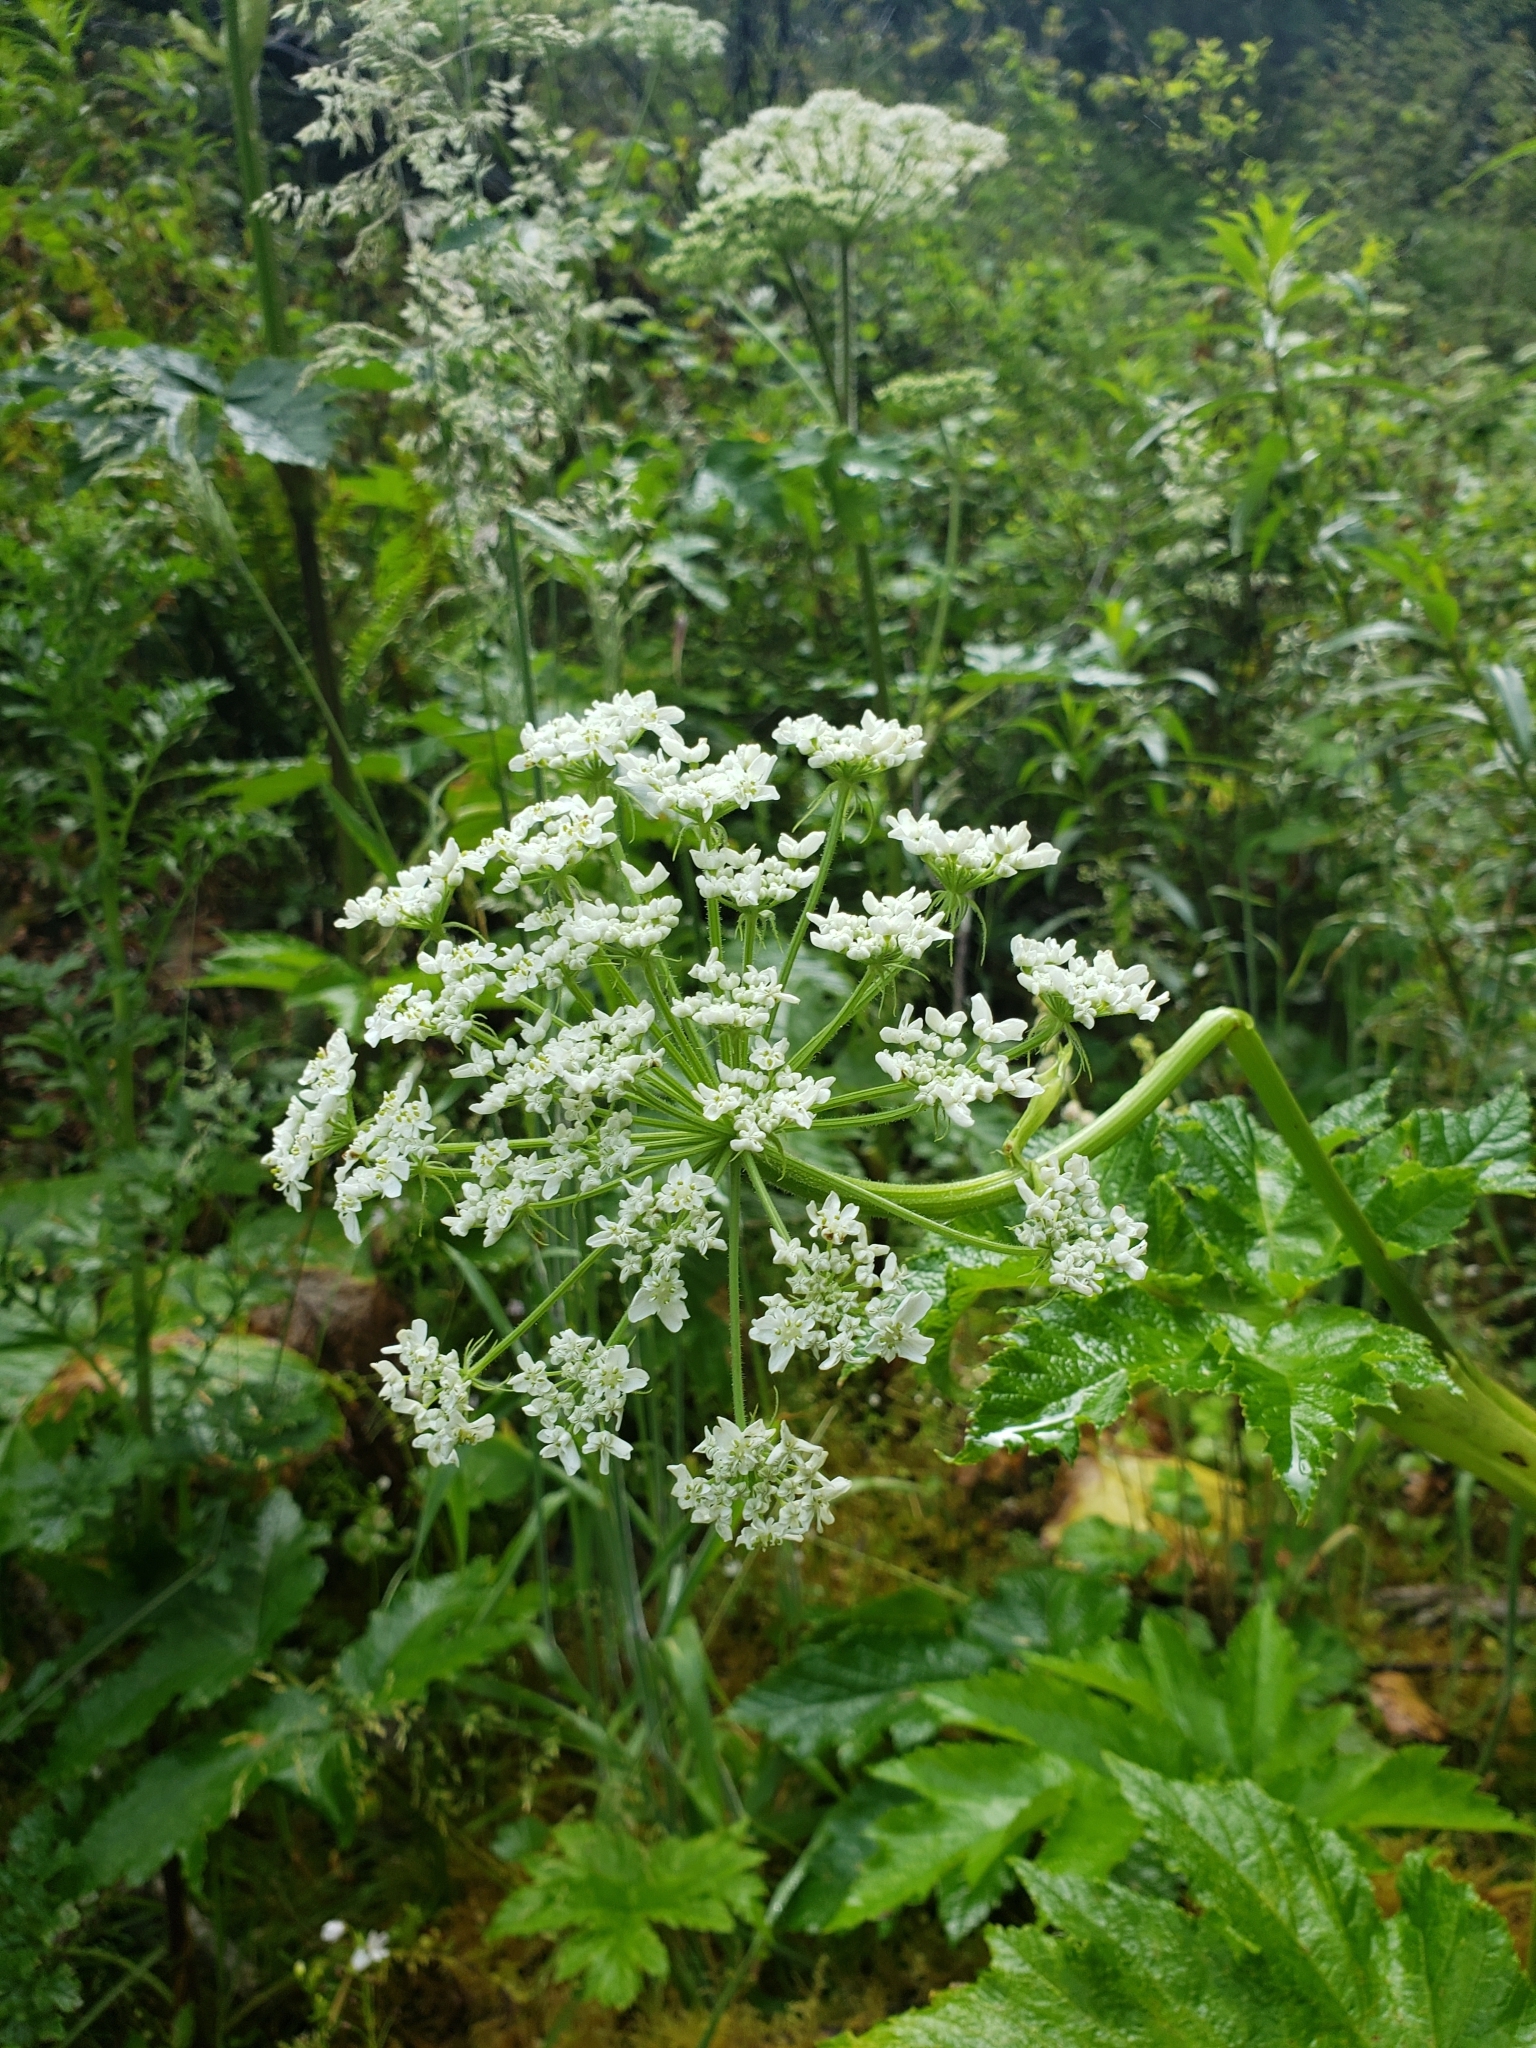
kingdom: Plantae
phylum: Tracheophyta
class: Magnoliopsida
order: Apiales
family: Apiaceae
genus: Heracleum
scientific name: Heracleum maximum
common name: American cow parsnip
